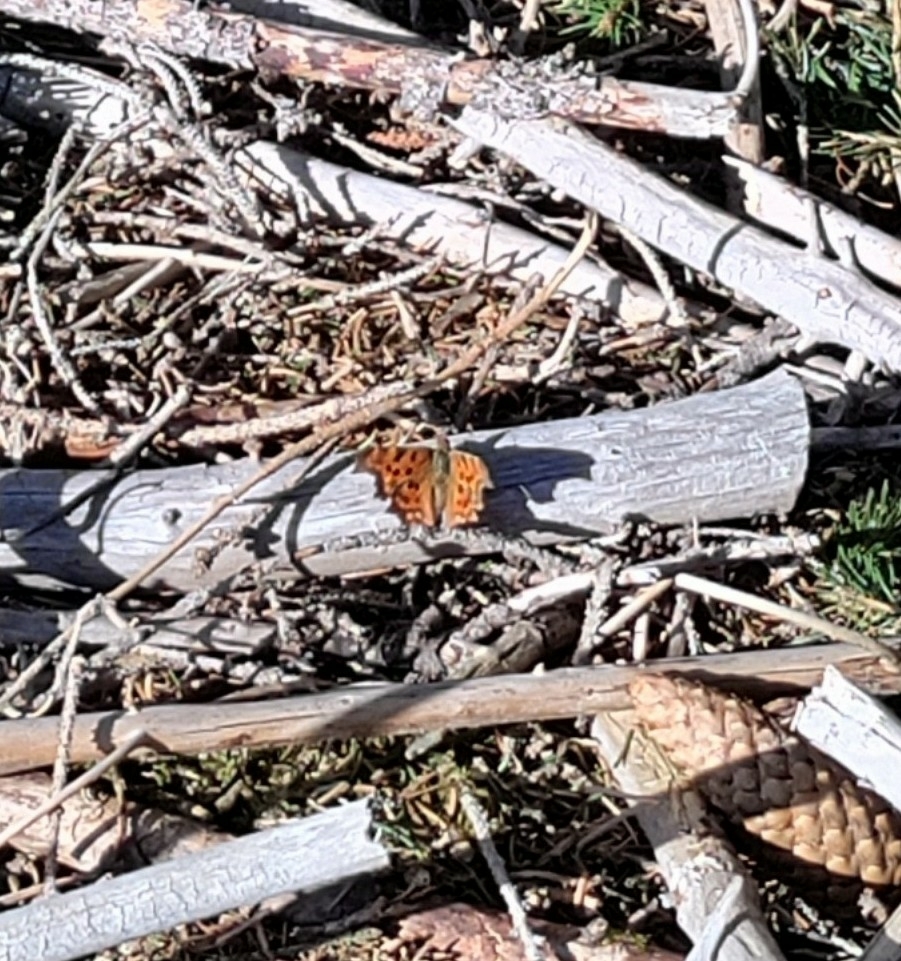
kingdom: Animalia
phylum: Arthropoda
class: Insecta
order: Lepidoptera
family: Nymphalidae
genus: Polygonia
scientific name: Polygonia c-album
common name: Comma
